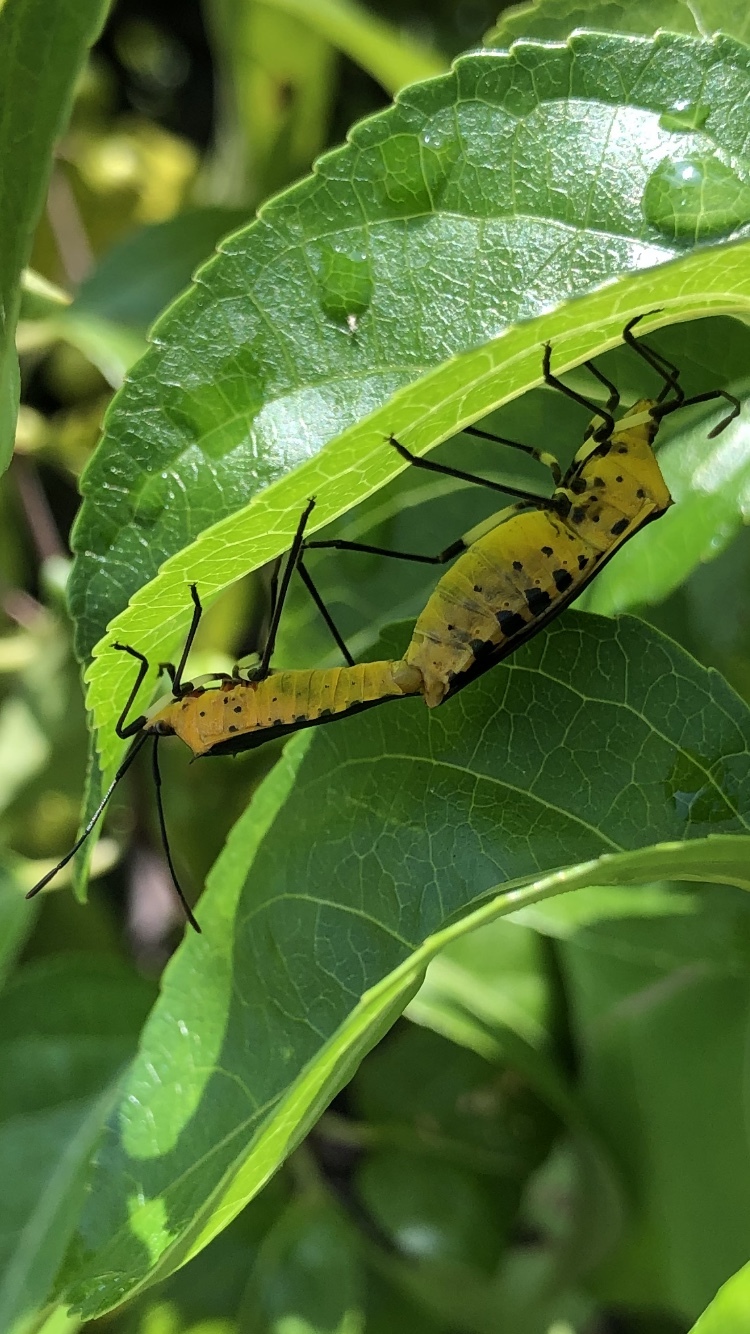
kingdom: Animalia
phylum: Arthropoda
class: Insecta
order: Hemiptera
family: Coreidae
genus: Plinachtus
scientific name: Plinachtus bicoloripes
